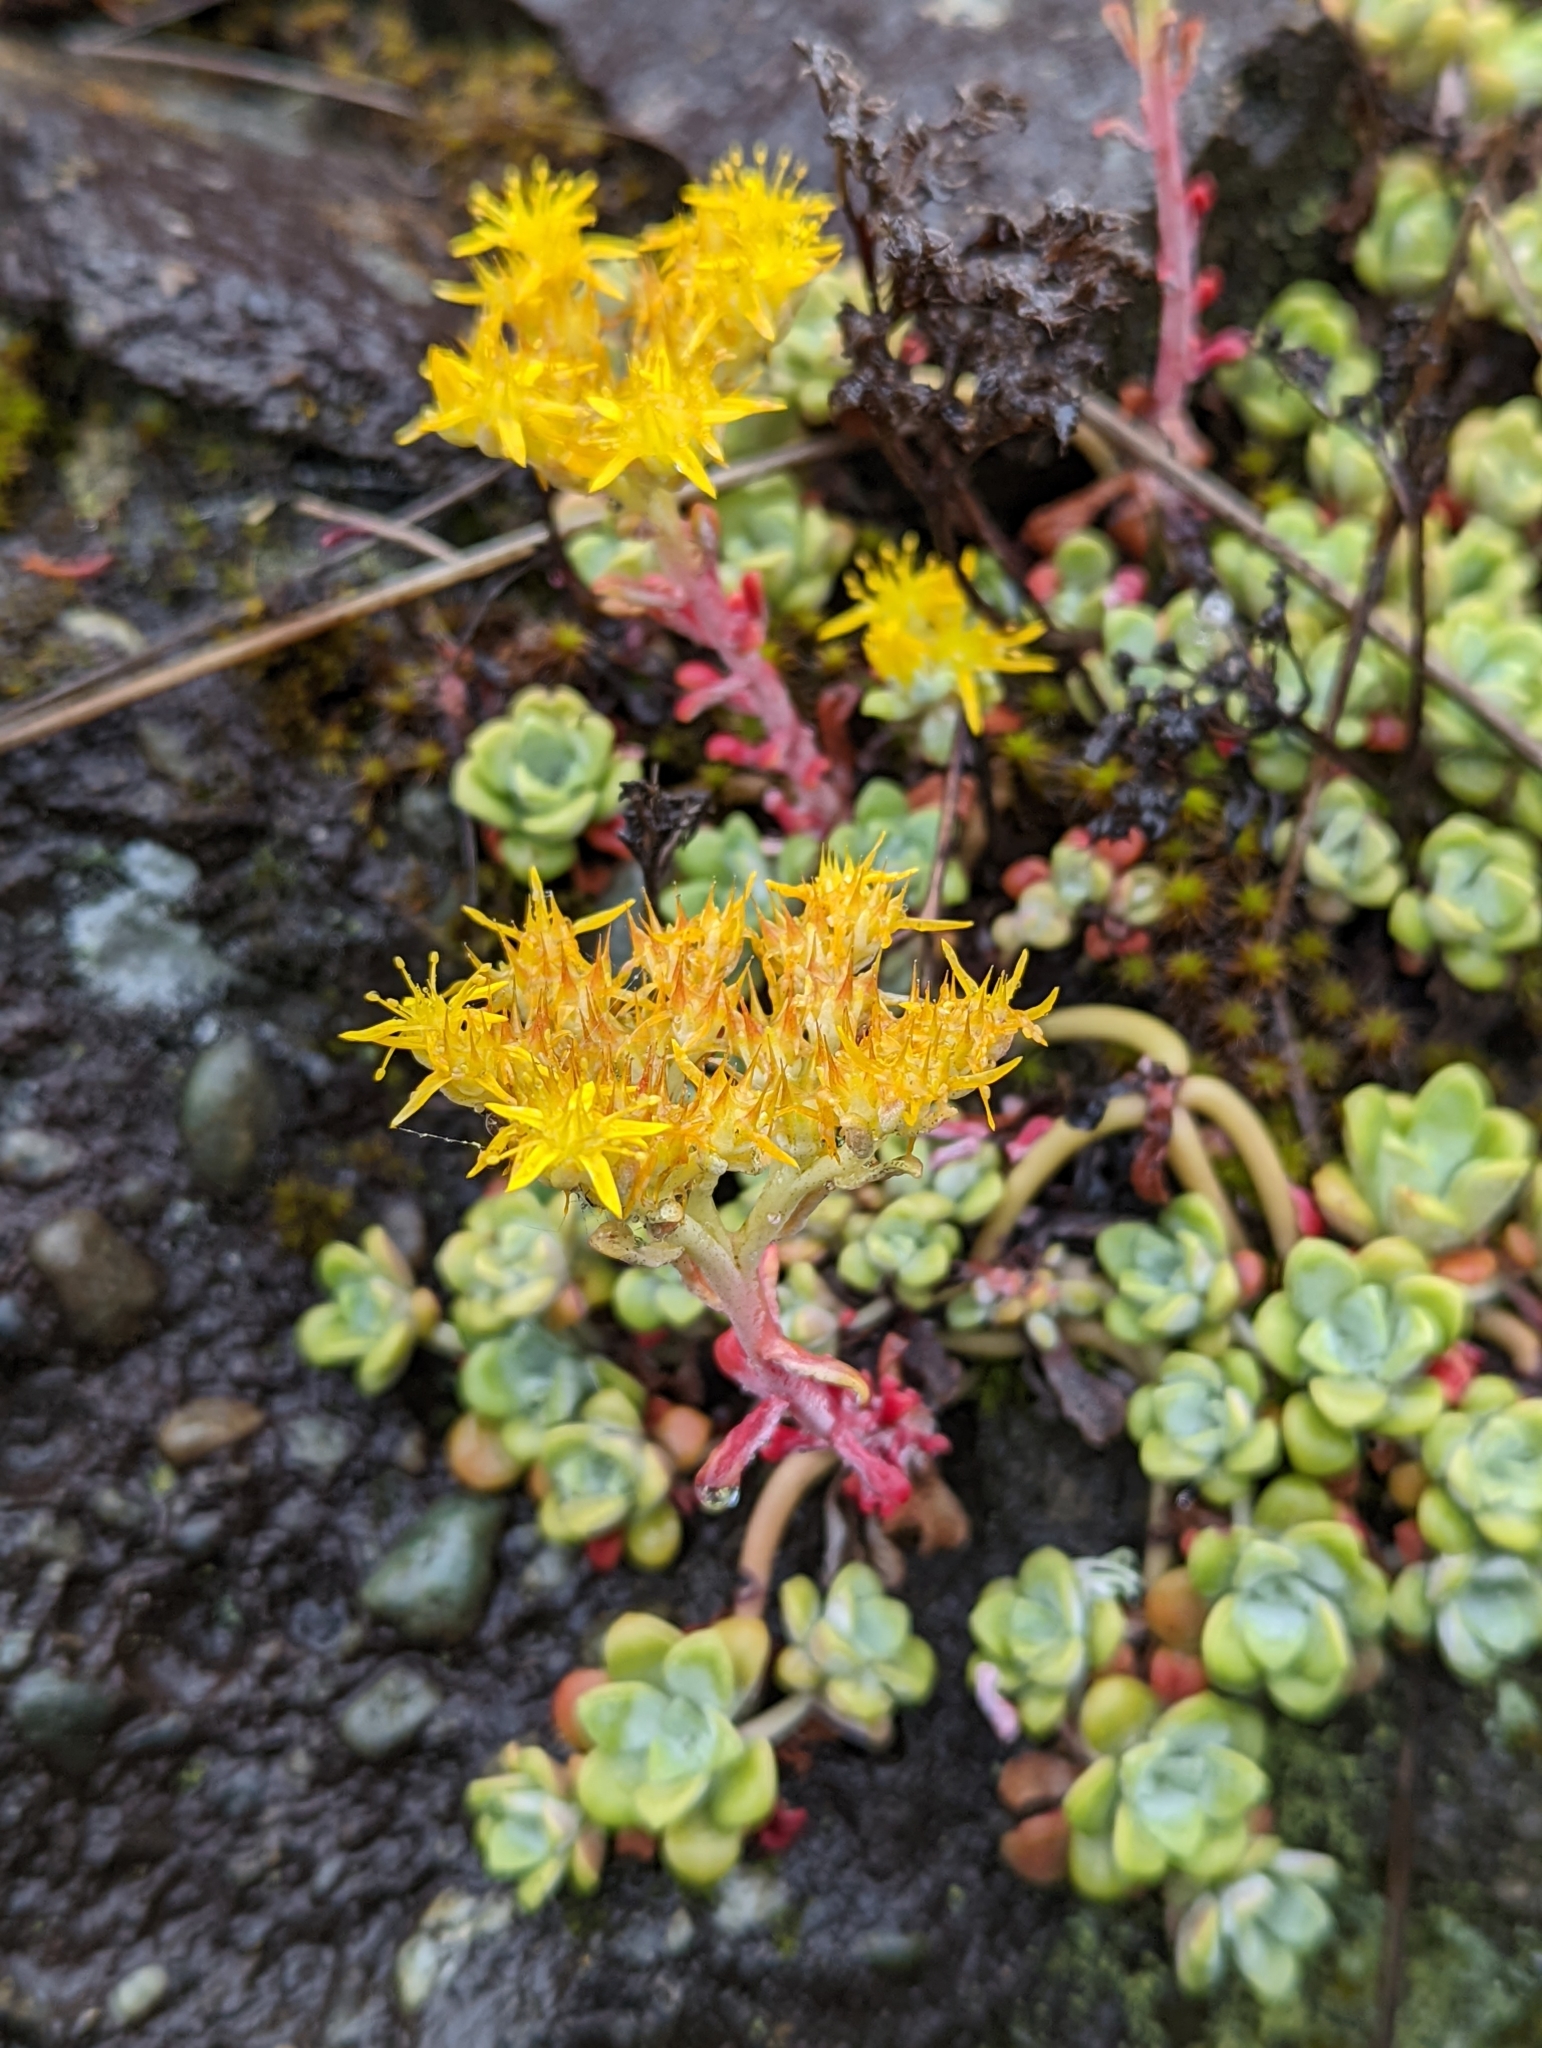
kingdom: Plantae
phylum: Tracheophyta
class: Magnoliopsida
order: Saxifragales
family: Crassulaceae
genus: Sedum
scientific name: Sedum spathulifolium
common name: Colorado stonecrop
